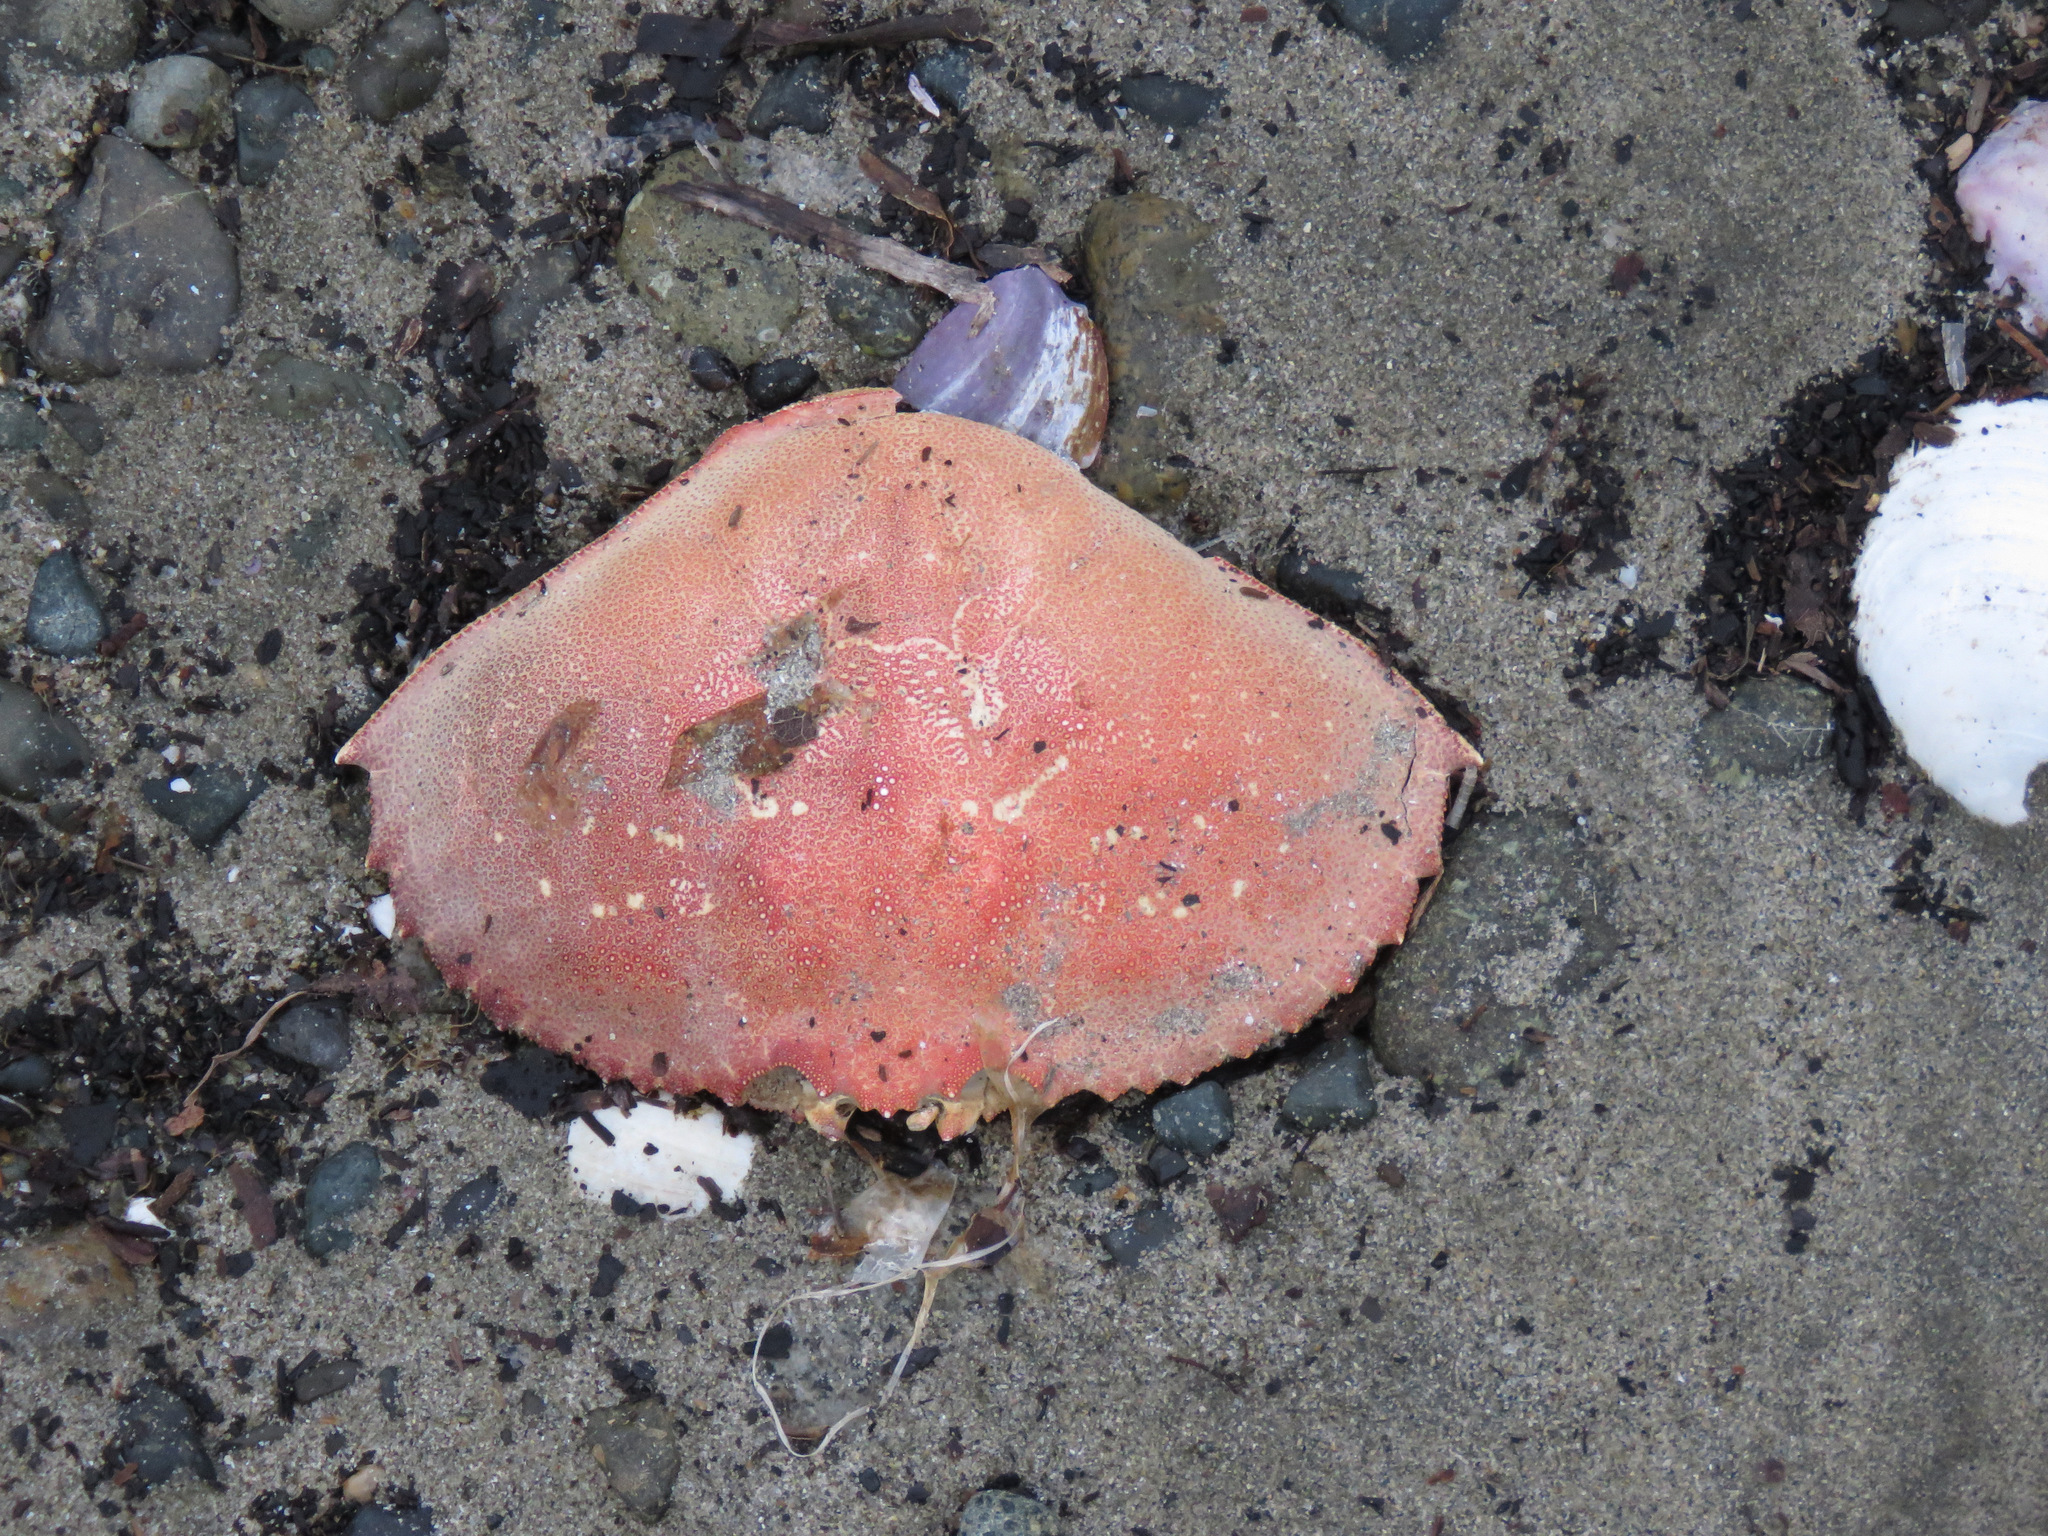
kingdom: Animalia
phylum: Arthropoda
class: Malacostraca
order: Decapoda
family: Cancridae
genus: Metacarcinus
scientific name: Metacarcinus magister
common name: Californian crab
